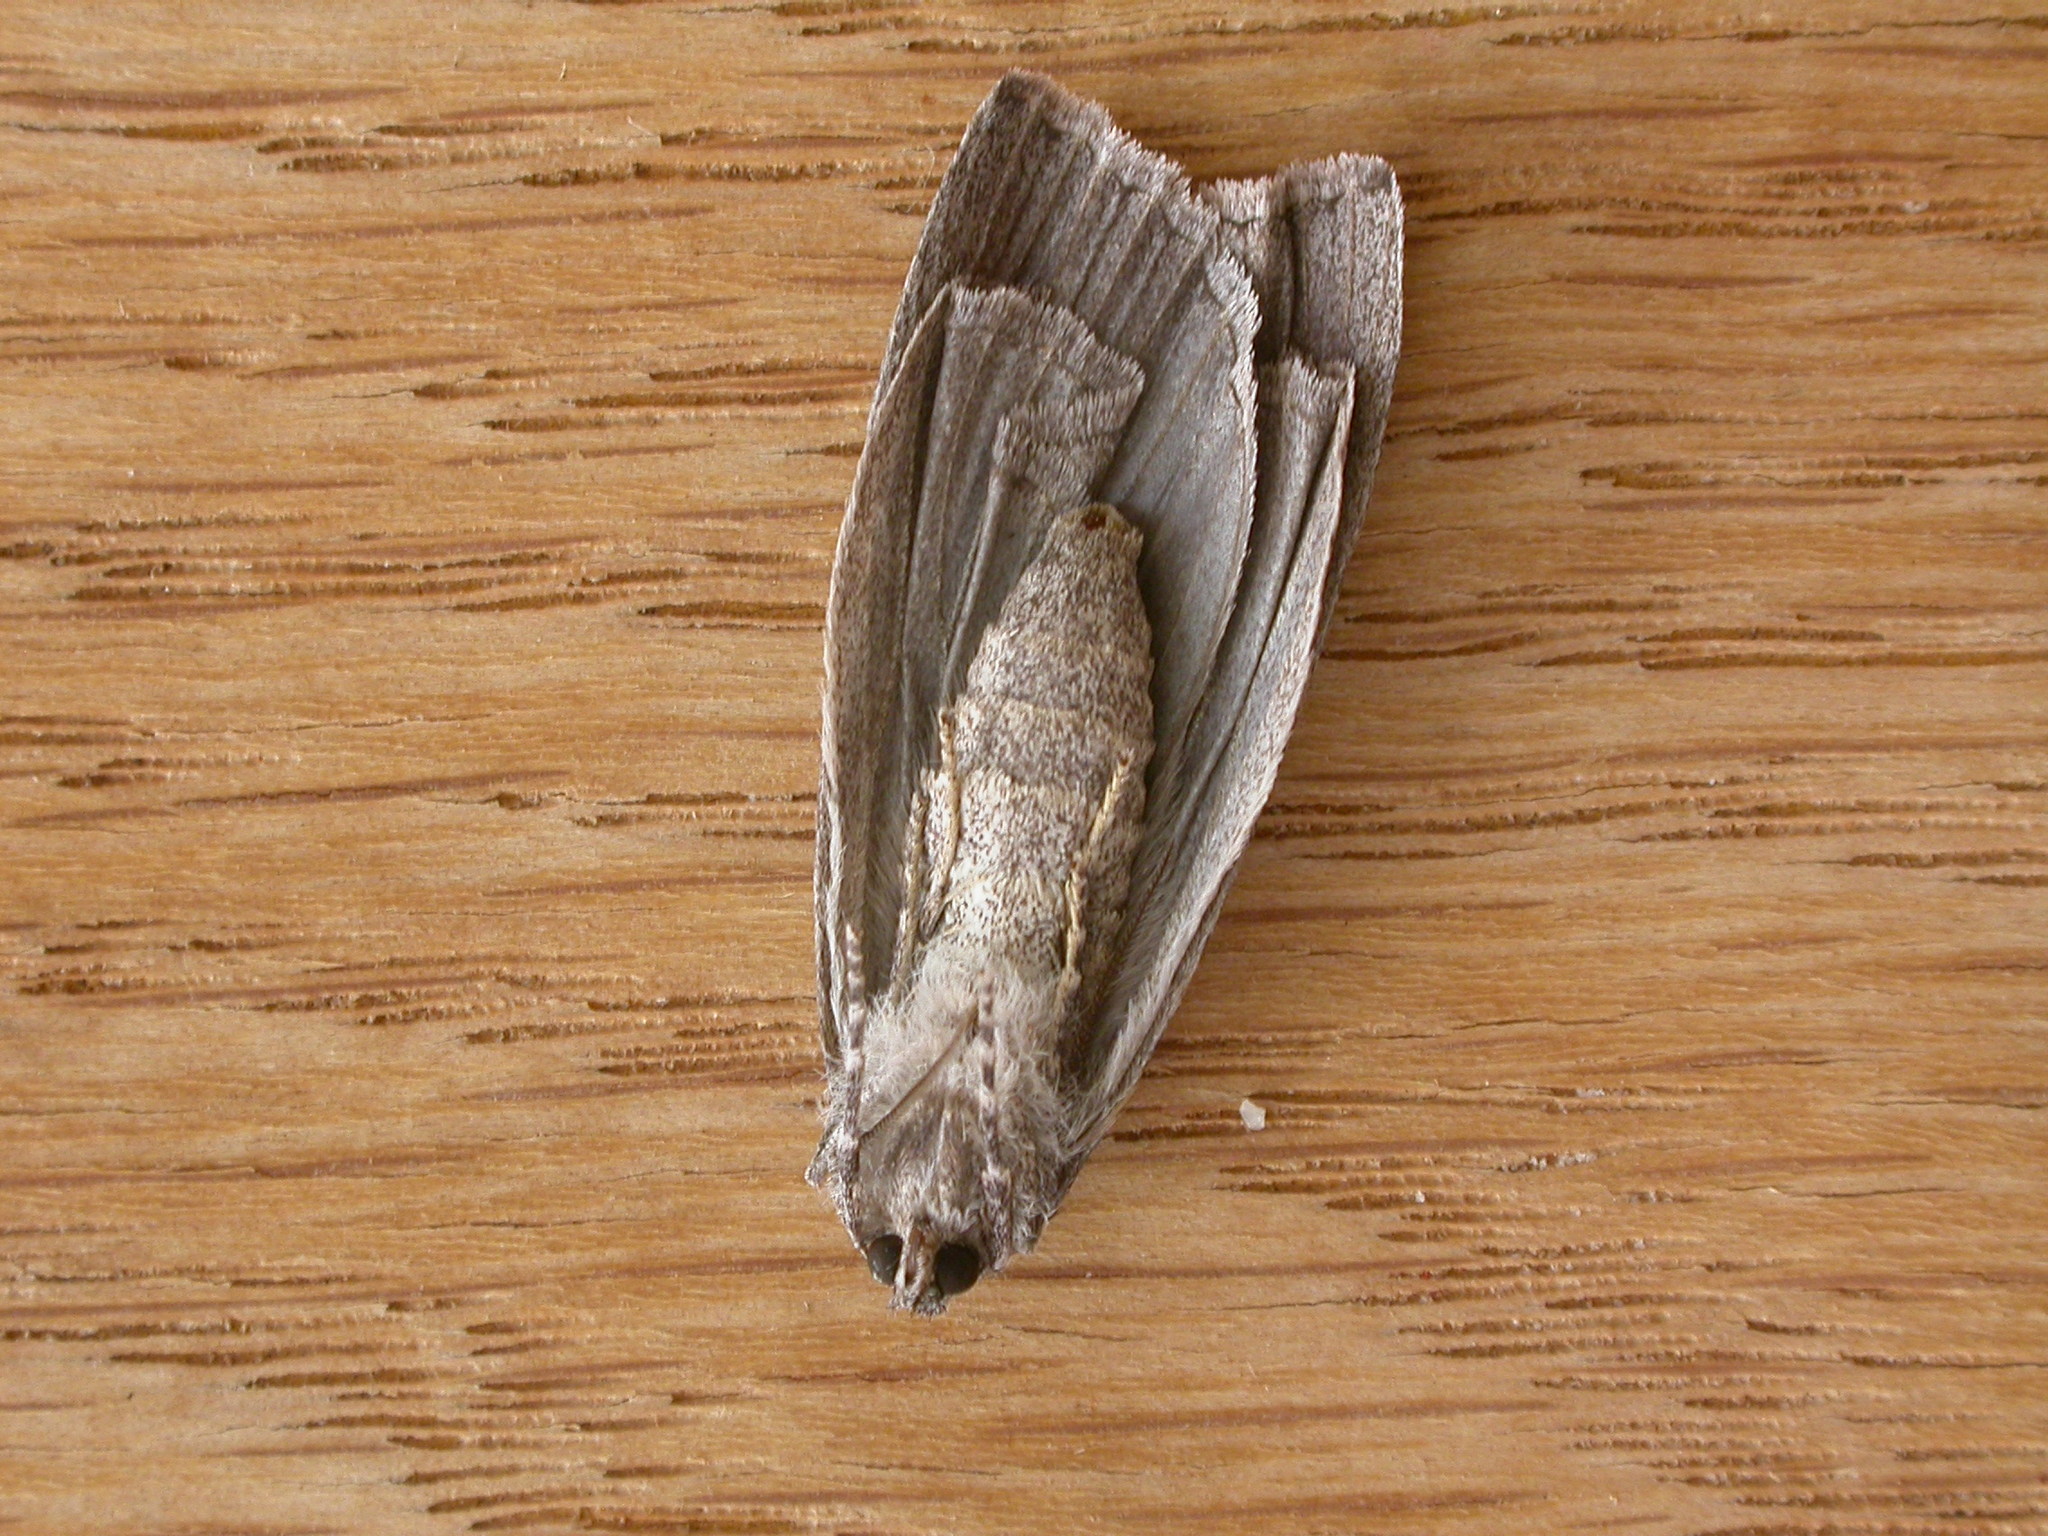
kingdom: Animalia
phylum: Arthropoda
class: Insecta
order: Lepidoptera
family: Geometridae
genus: Chlenias
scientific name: Chlenias banksiaria
